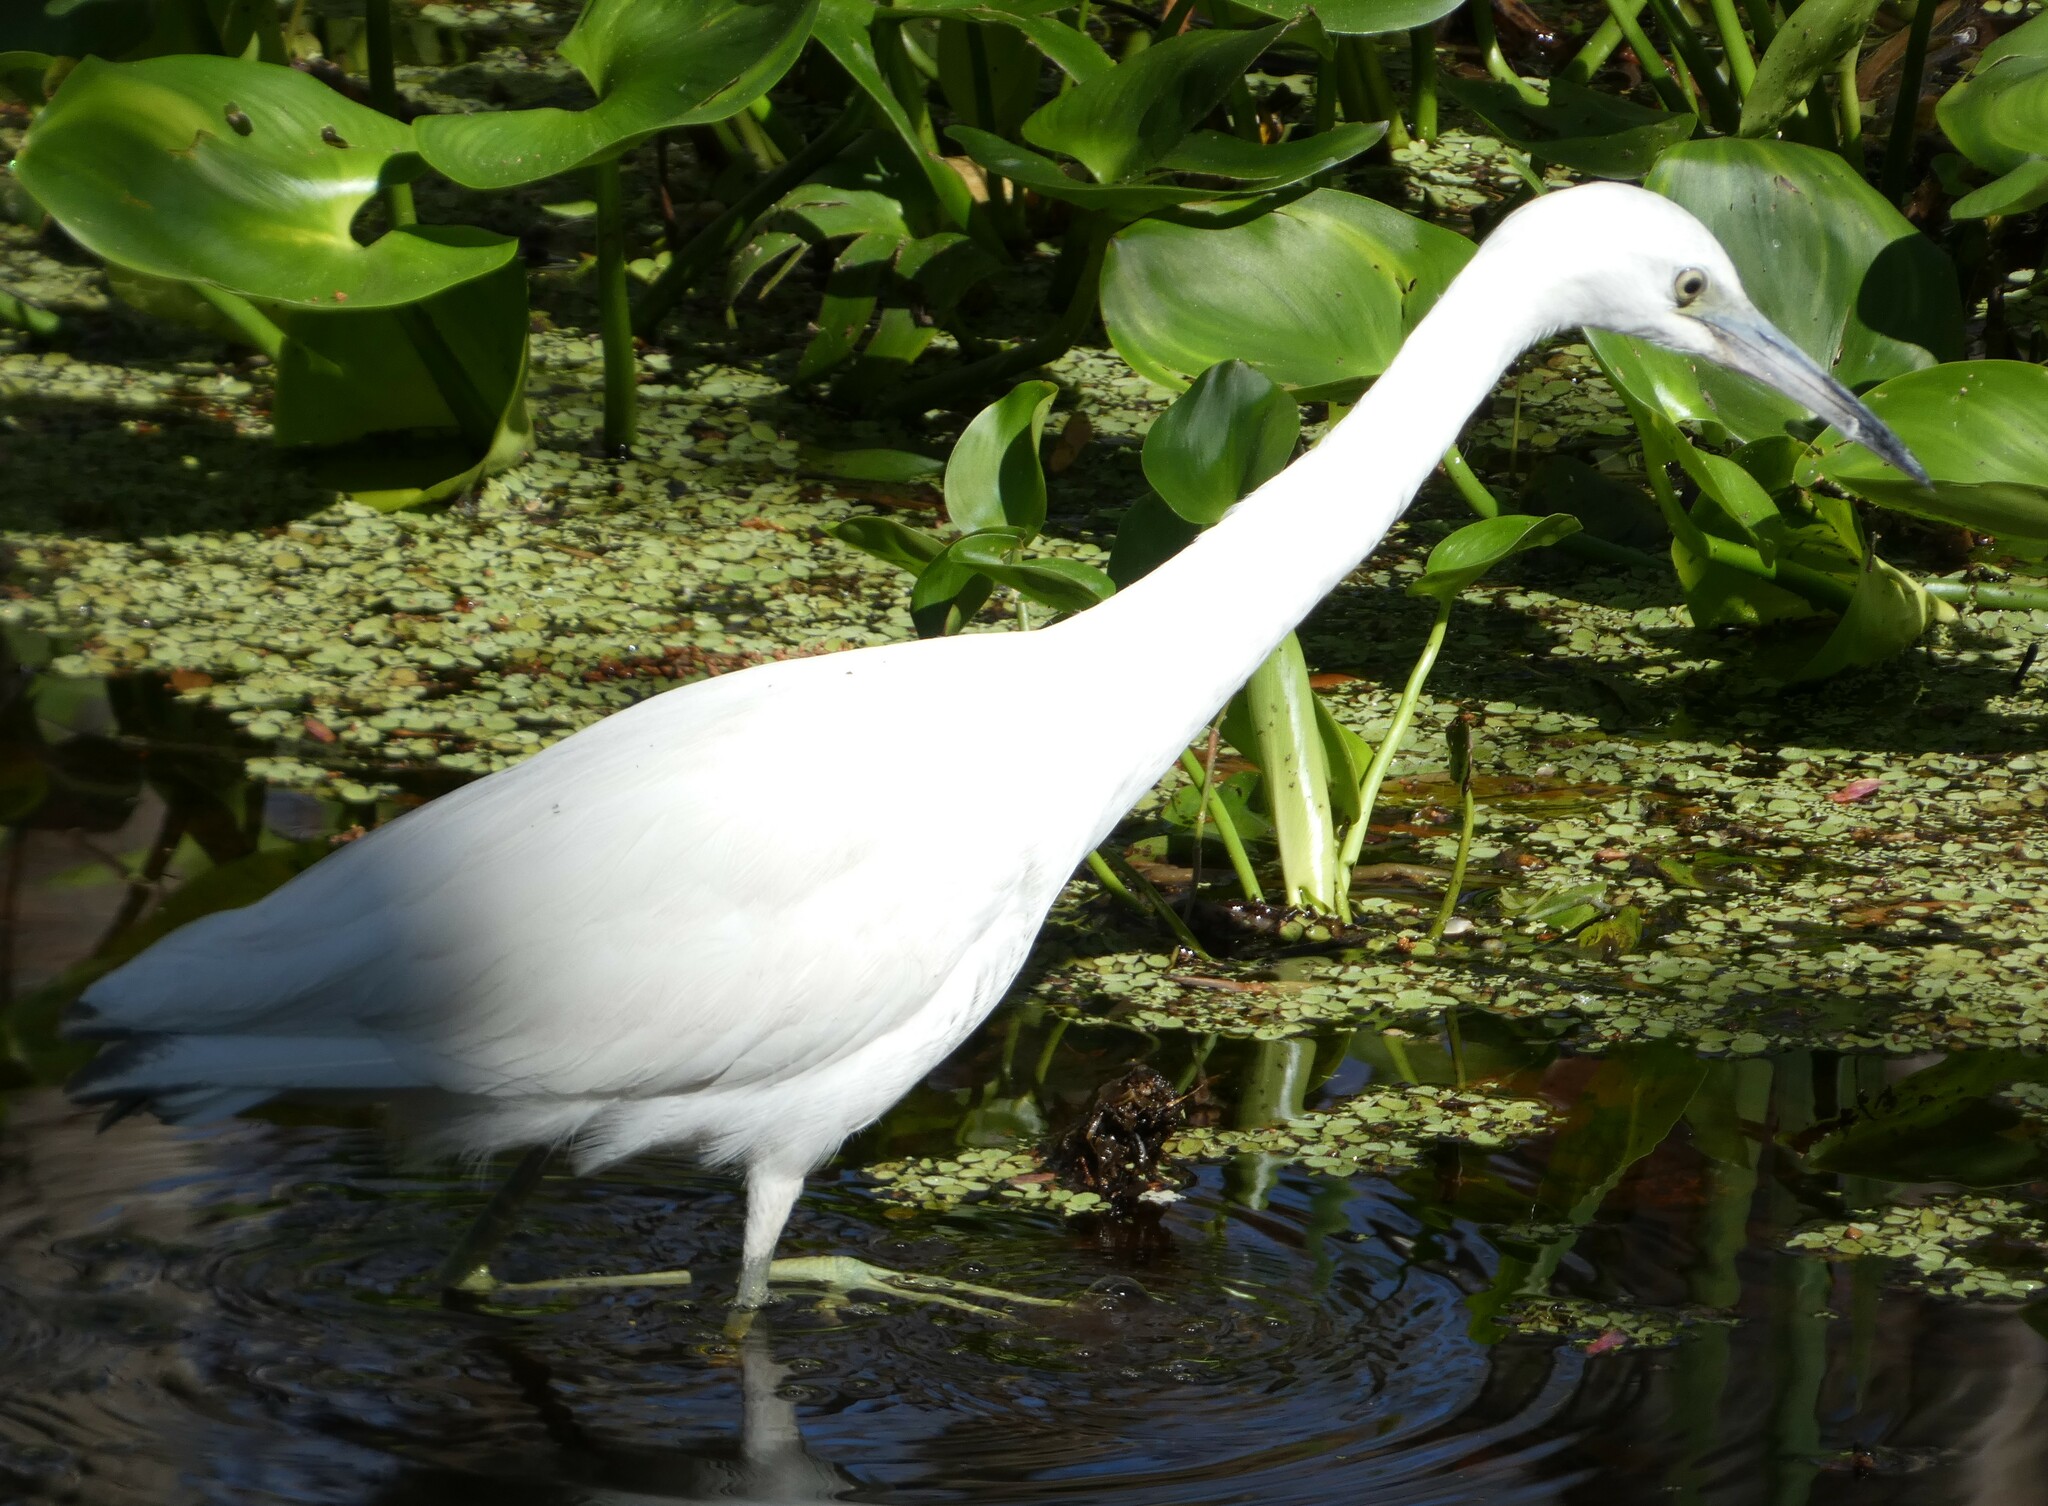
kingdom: Animalia
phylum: Chordata
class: Aves
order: Pelecaniformes
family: Ardeidae
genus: Egretta
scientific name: Egretta caerulea
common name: Little blue heron
